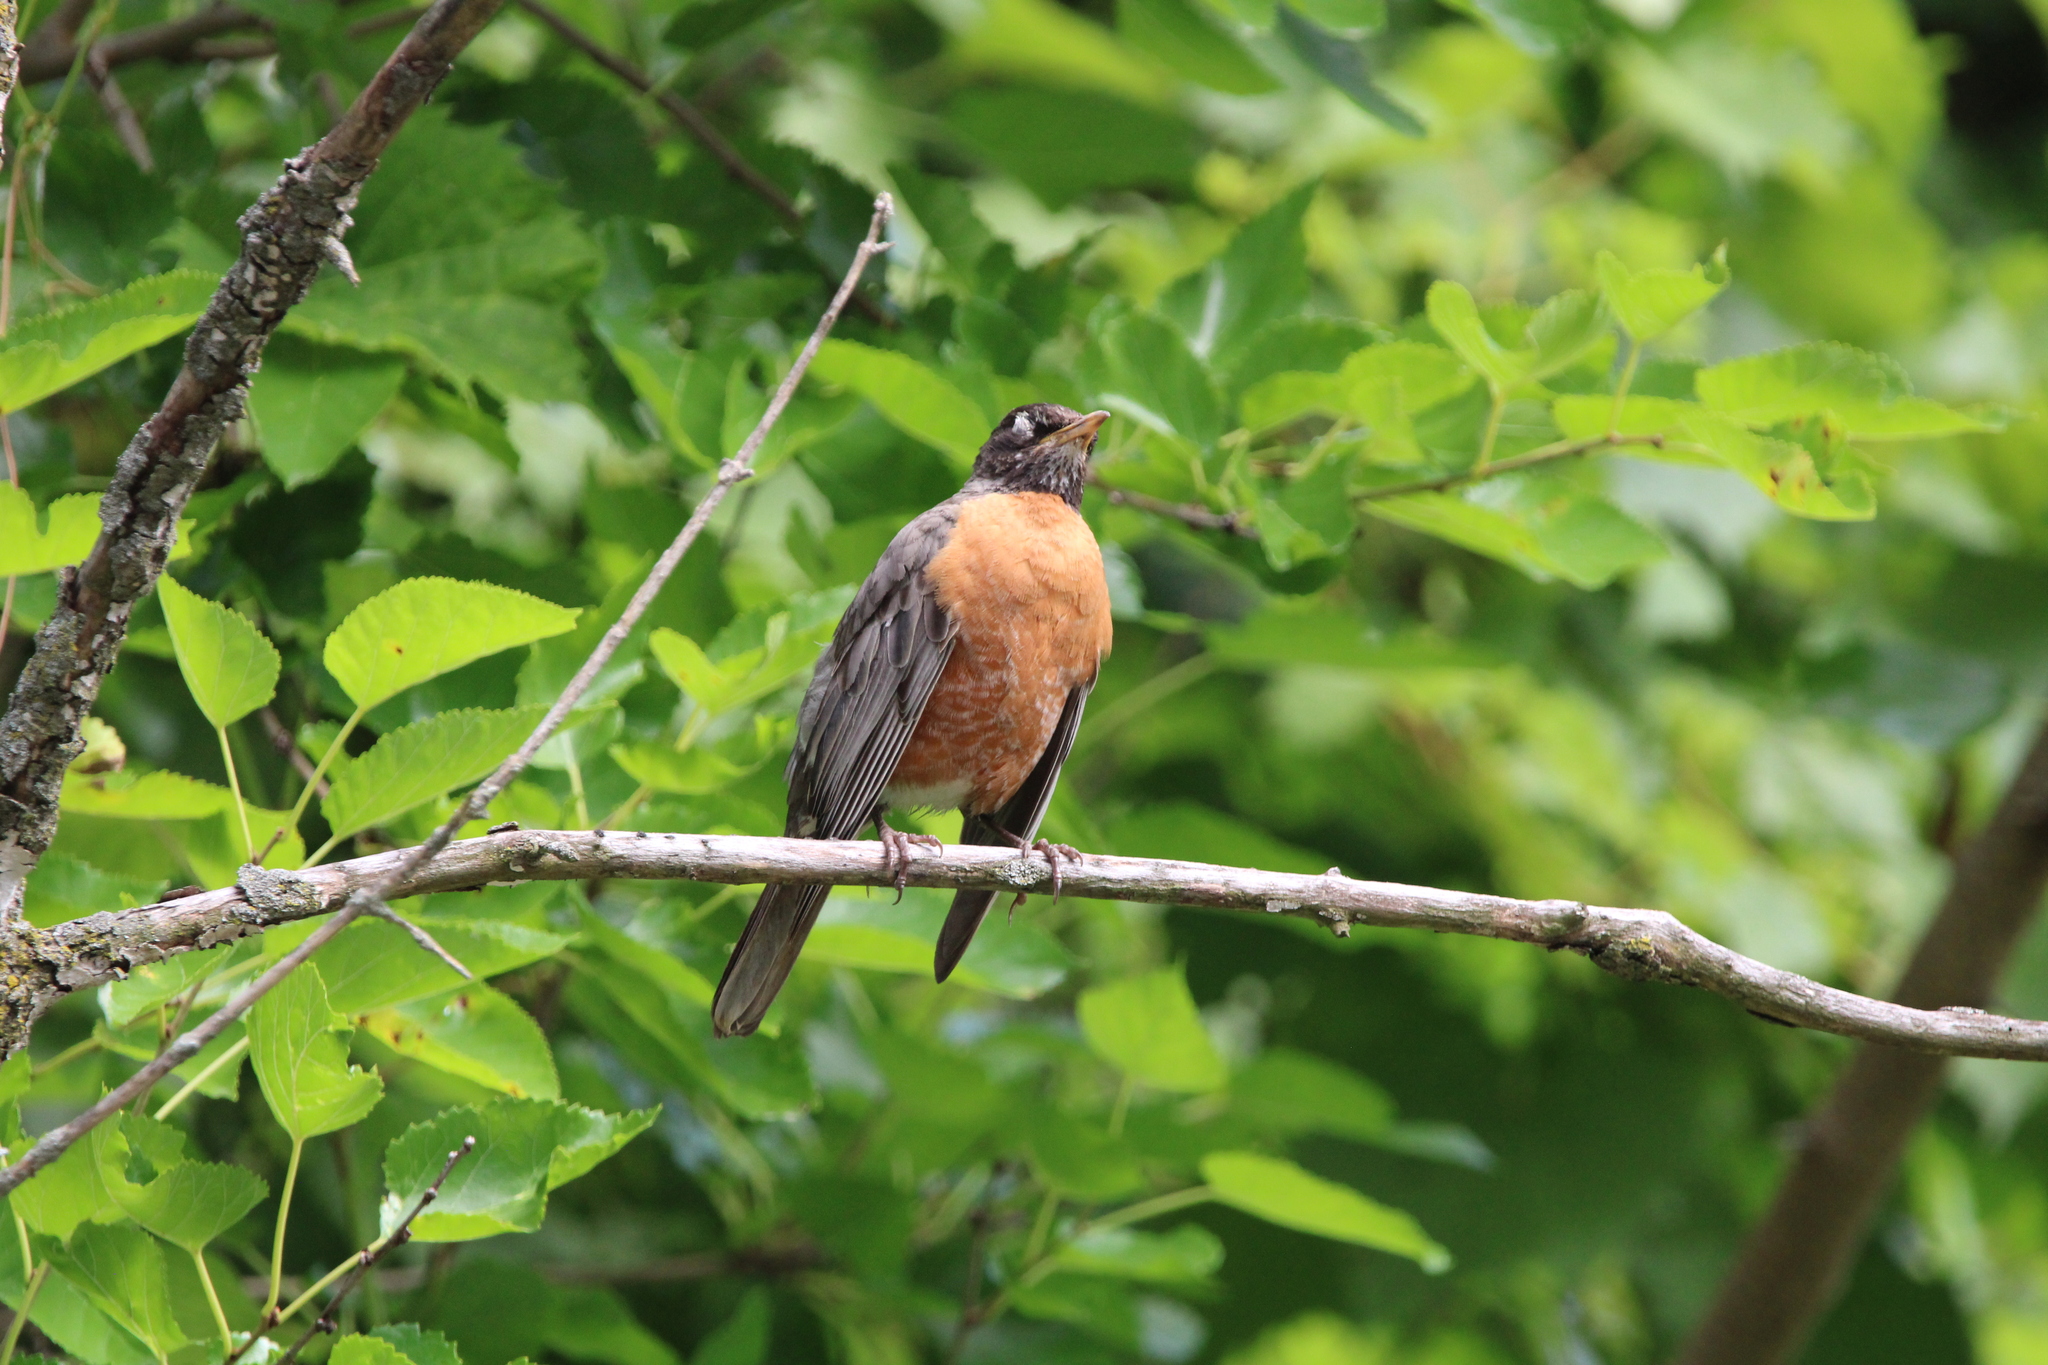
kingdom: Animalia
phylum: Chordata
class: Aves
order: Passeriformes
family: Turdidae
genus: Turdus
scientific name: Turdus migratorius
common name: American robin
